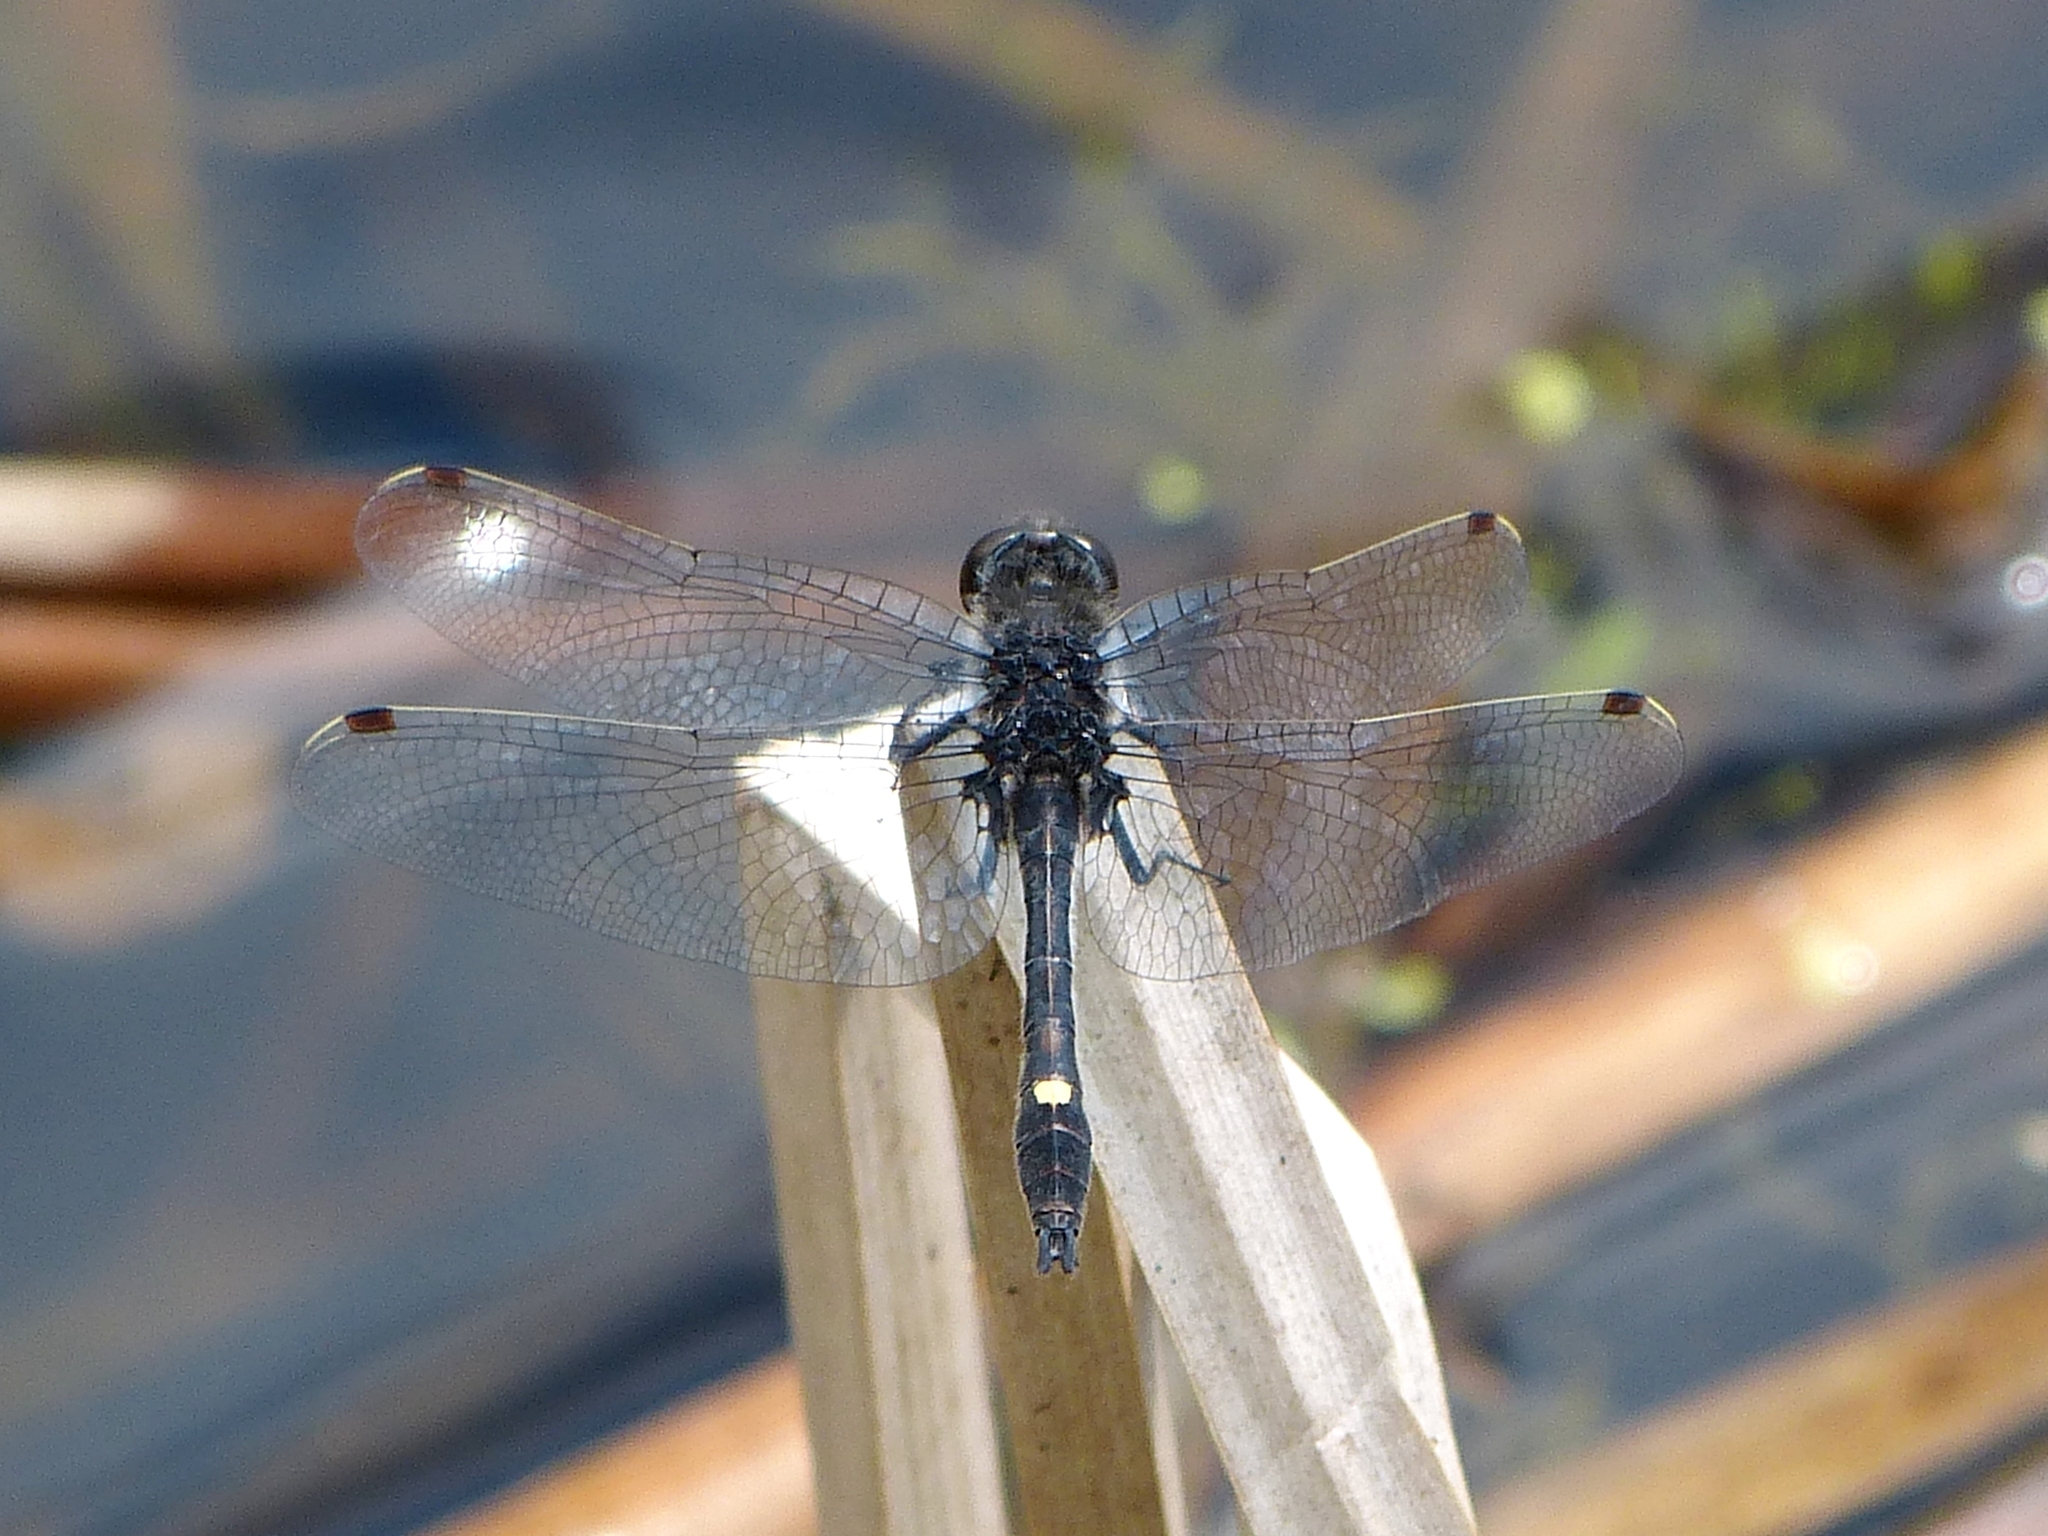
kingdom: Animalia
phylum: Arthropoda
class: Insecta
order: Odonata
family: Libellulidae
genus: Leucorrhinia
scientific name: Leucorrhinia intacta
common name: Dot-tailed whiteface
